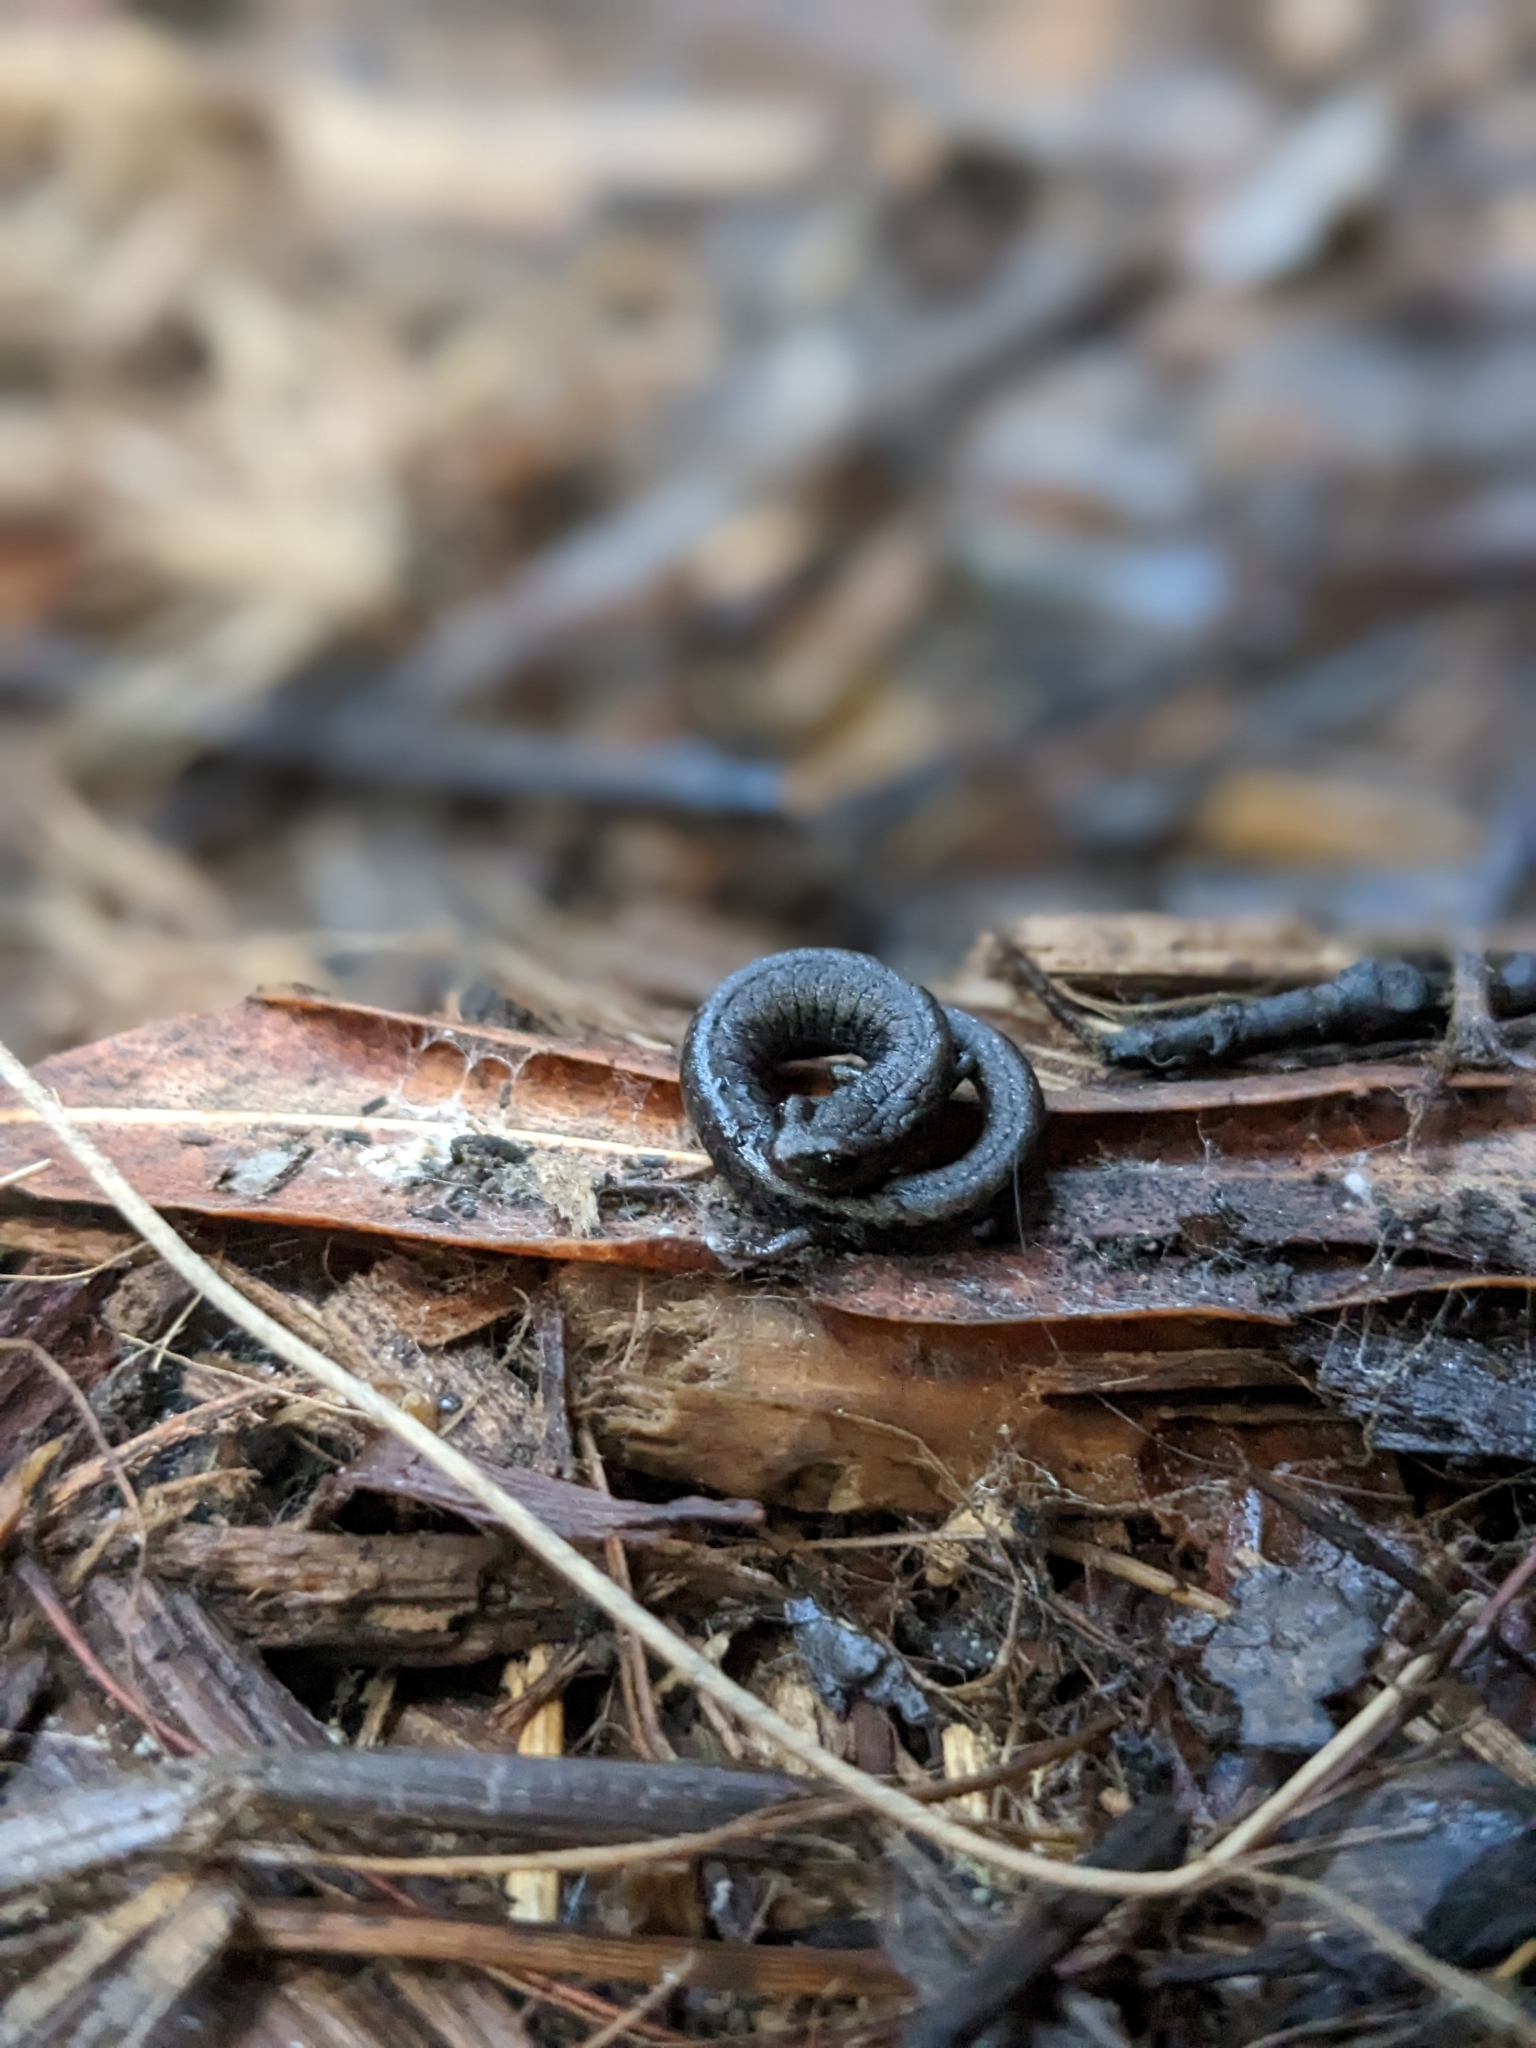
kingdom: Animalia
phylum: Chordata
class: Amphibia
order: Caudata
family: Plethodontidae
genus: Batrachoseps
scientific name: Batrachoseps nigriventris
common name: Black-bellied slender salamander
